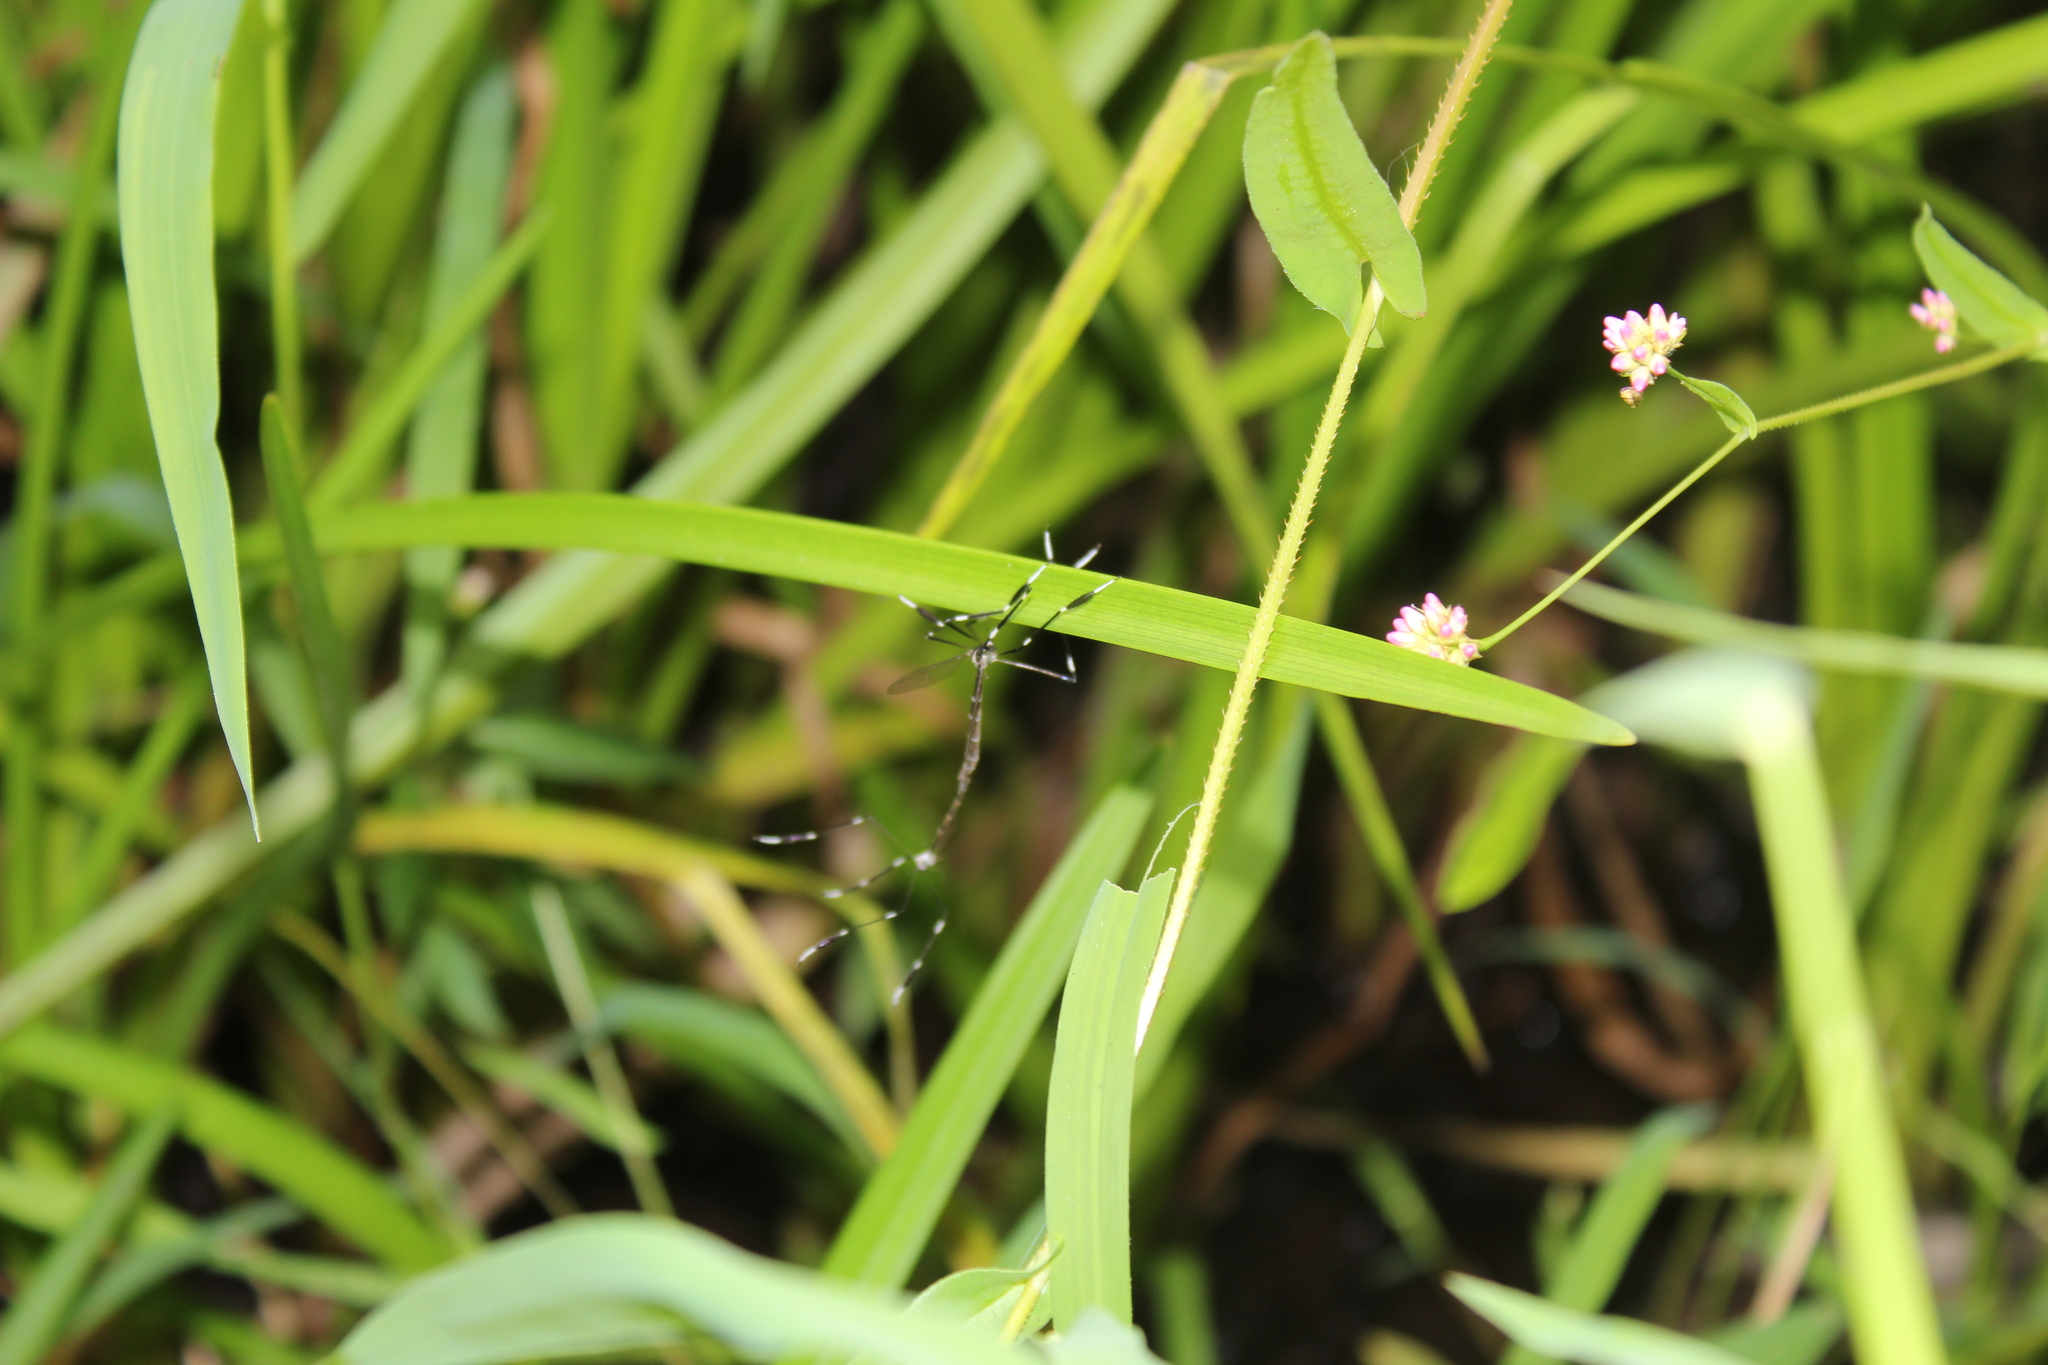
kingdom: Animalia
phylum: Arthropoda
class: Insecta
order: Diptera
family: Ptychopteridae
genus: Bittacomorpha
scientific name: Bittacomorpha clavipes
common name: Eastern phantom crane fly
